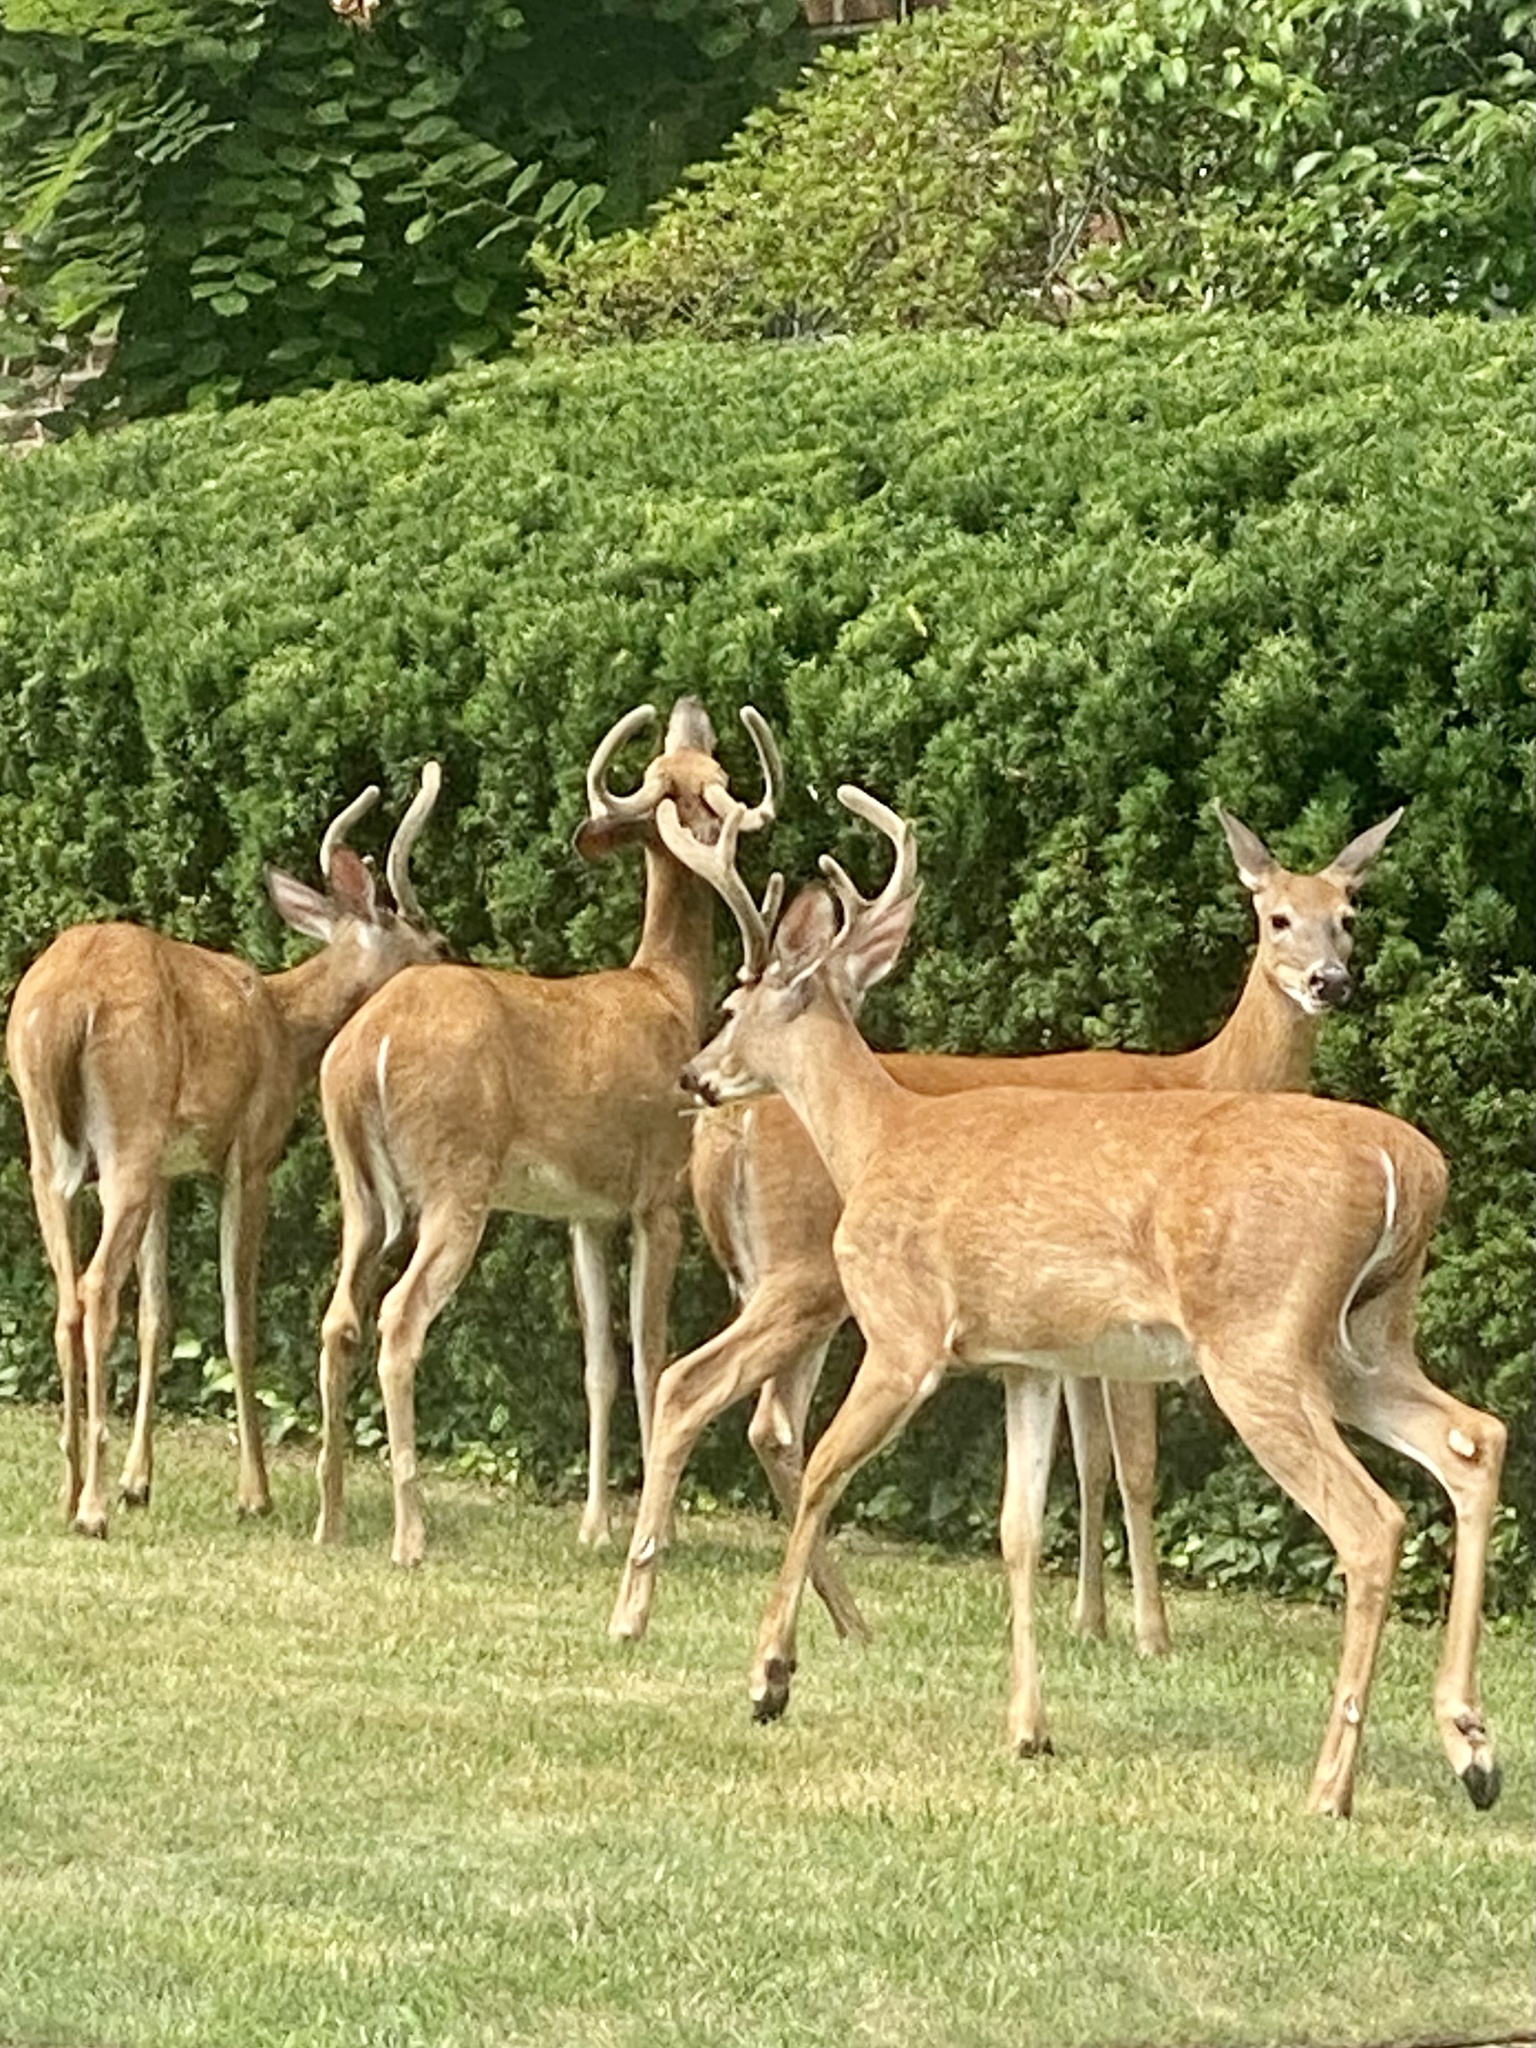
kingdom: Animalia
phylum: Chordata
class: Mammalia
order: Artiodactyla
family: Cervidae
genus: Odocoileus
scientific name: Odocoileus virginianus
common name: White-tailed deer
